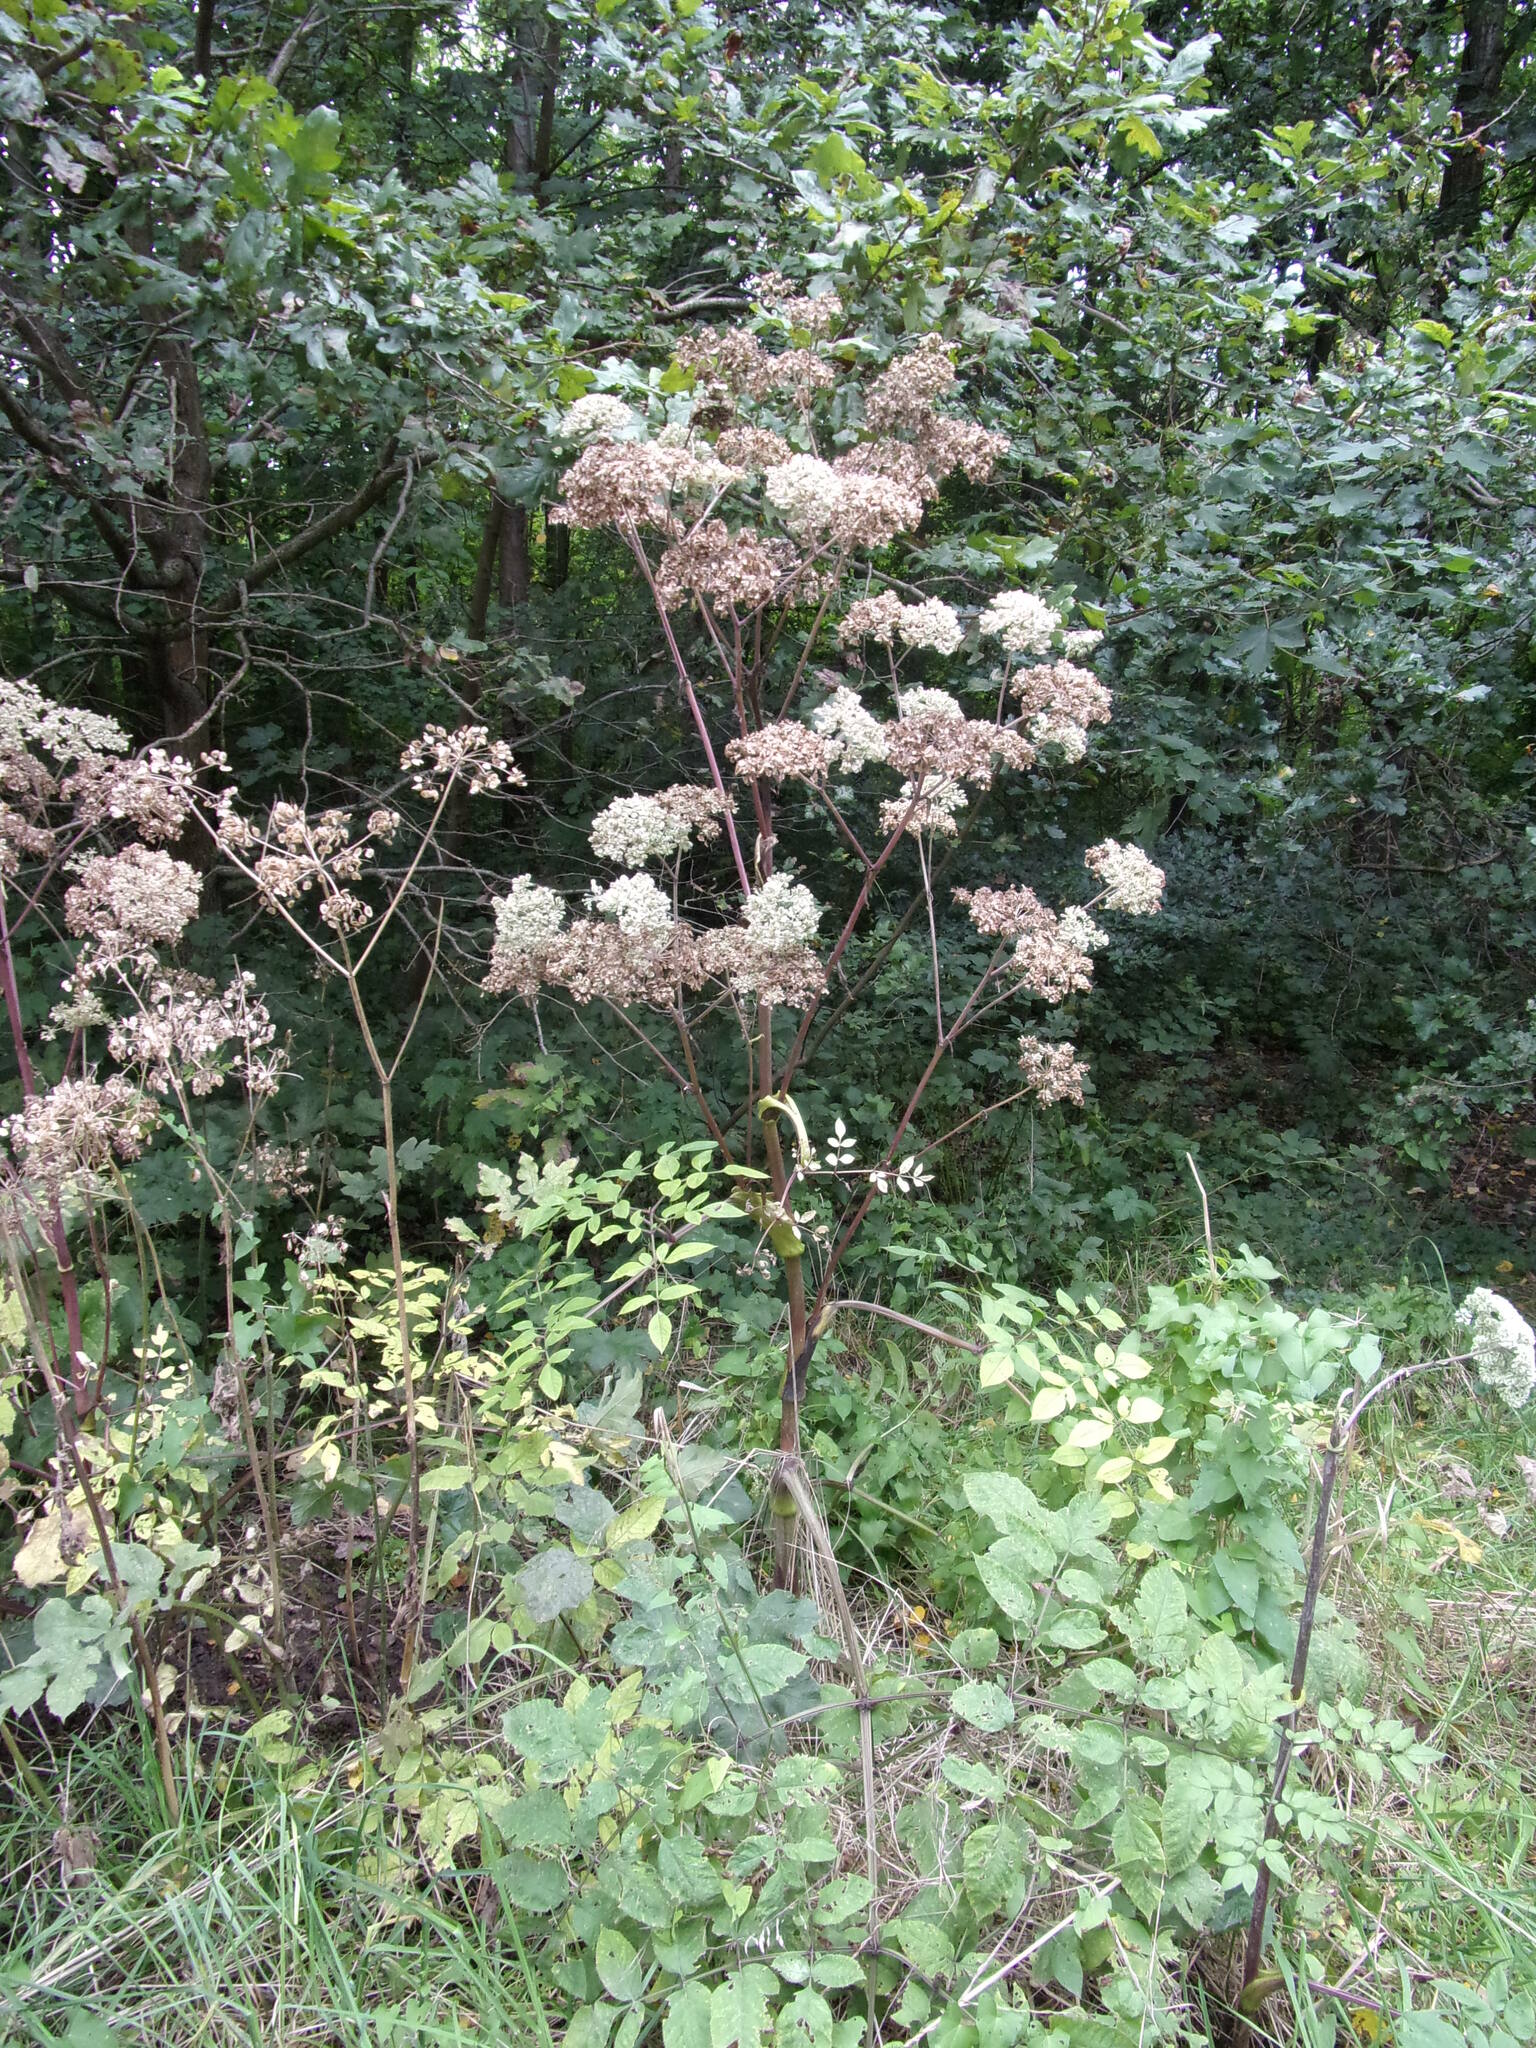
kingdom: Plantae
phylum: Tracheophyta
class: Magnoliopsida
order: Apiales
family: Apiaceae
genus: Angelica
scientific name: Angelica sylvestris
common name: Wild angelica
